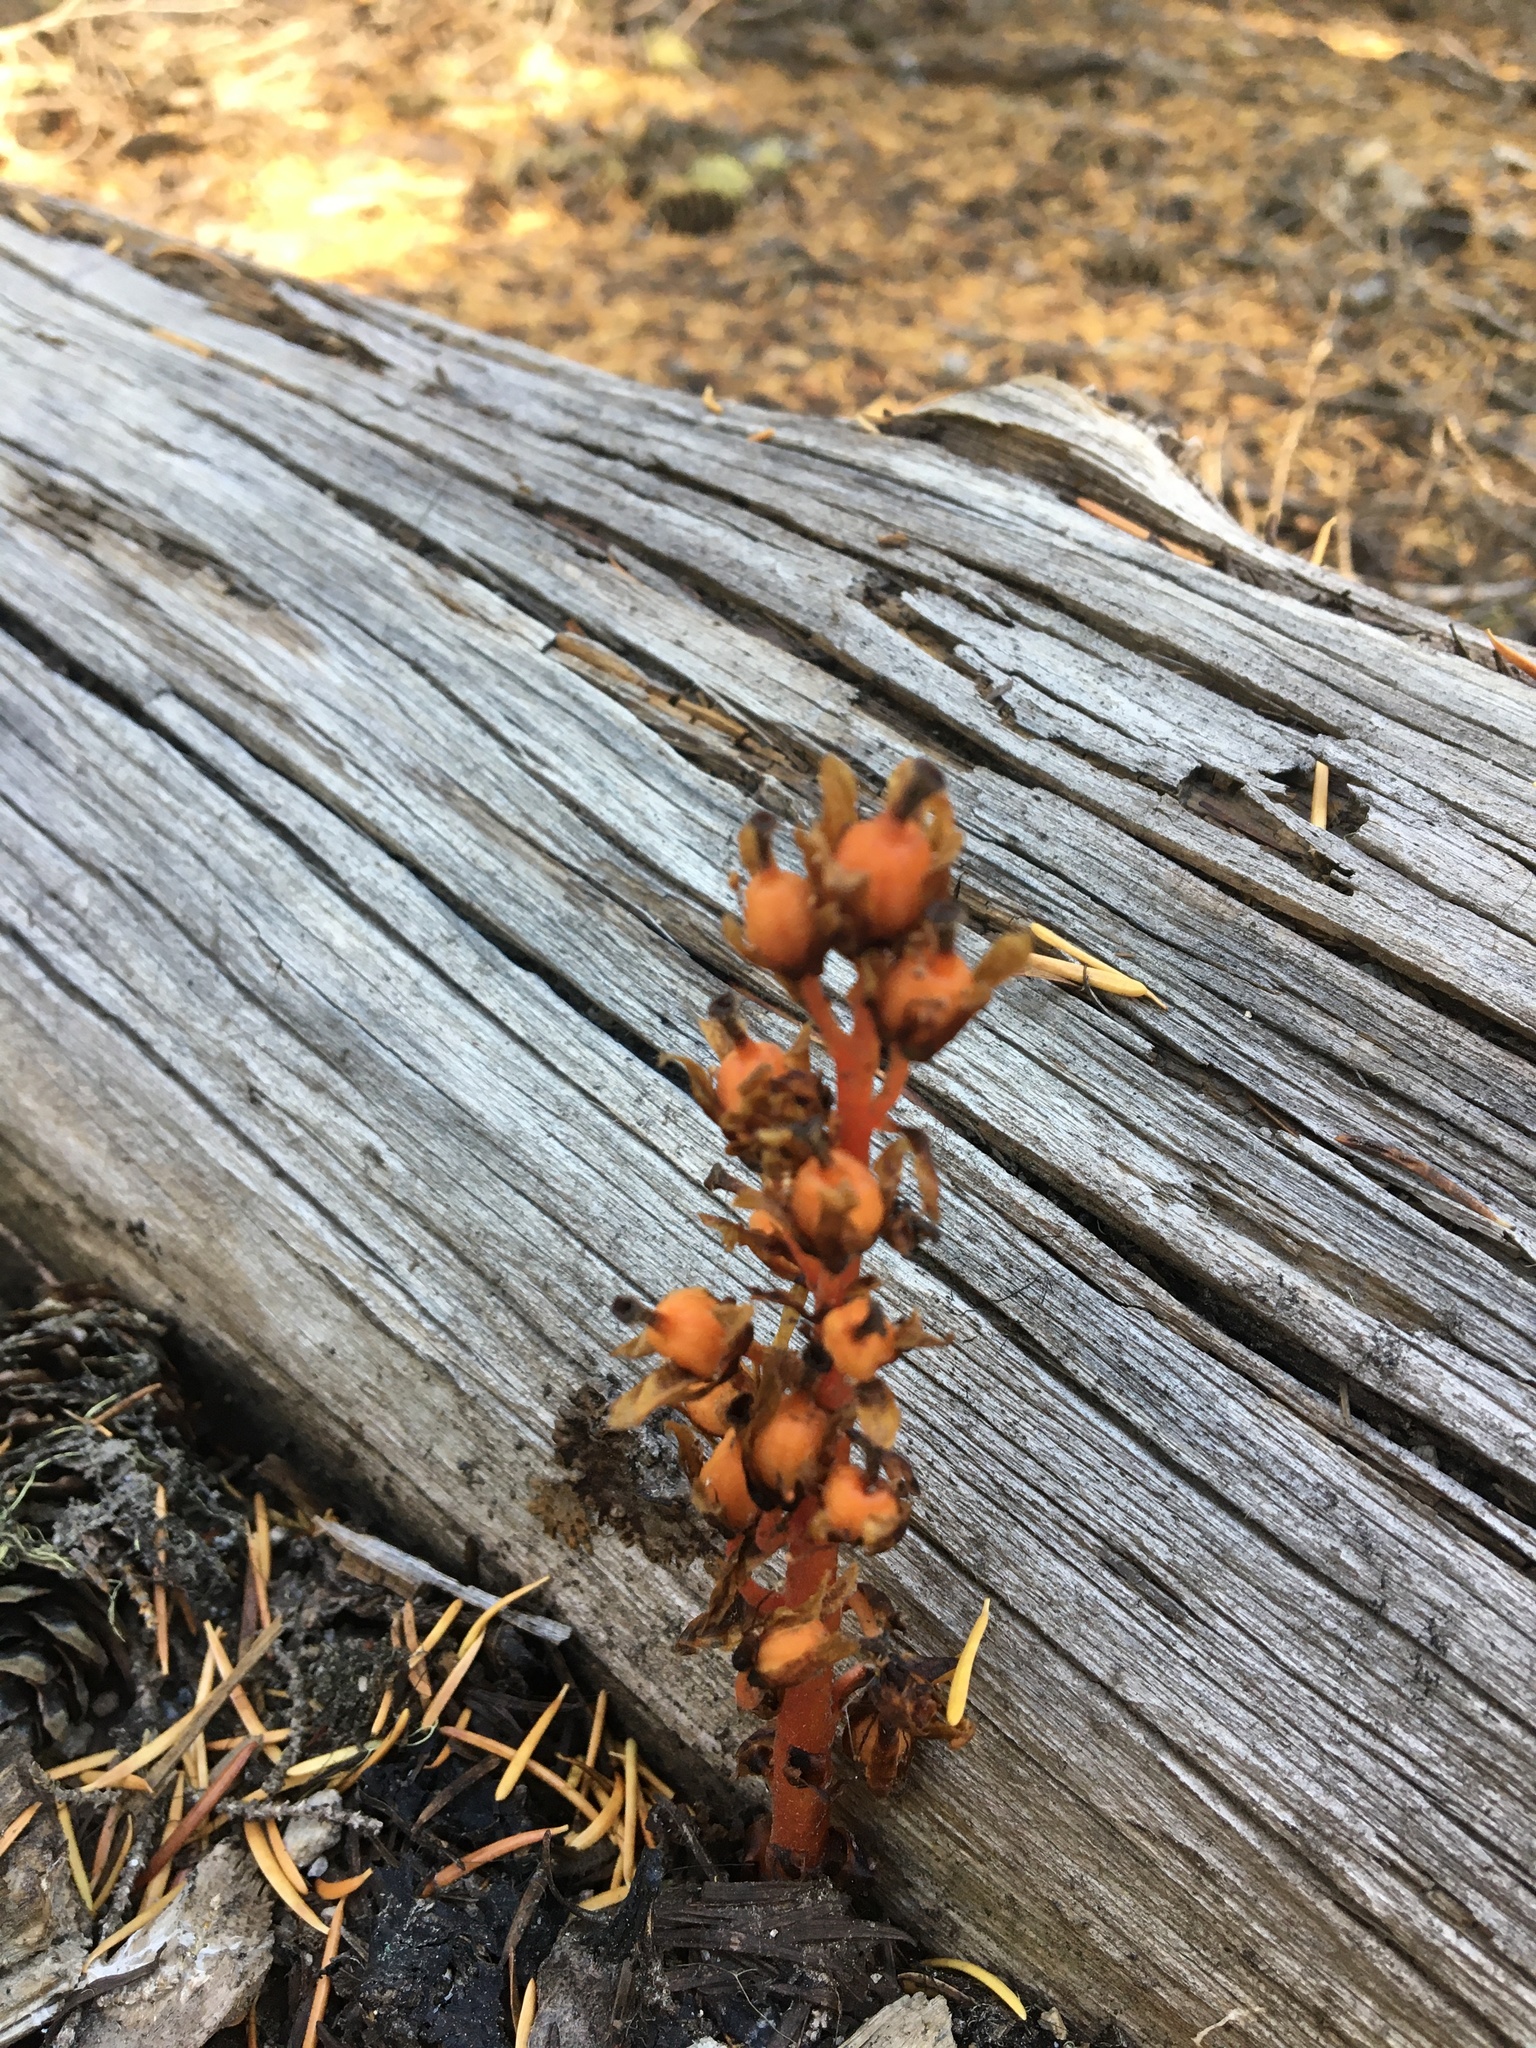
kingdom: Plantae
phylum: Tracheophyta
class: Magnoliopsida
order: Ericales
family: Ericaceae
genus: Hypopitys
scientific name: Hypopitys monotropa
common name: Yellow bird's-nest
